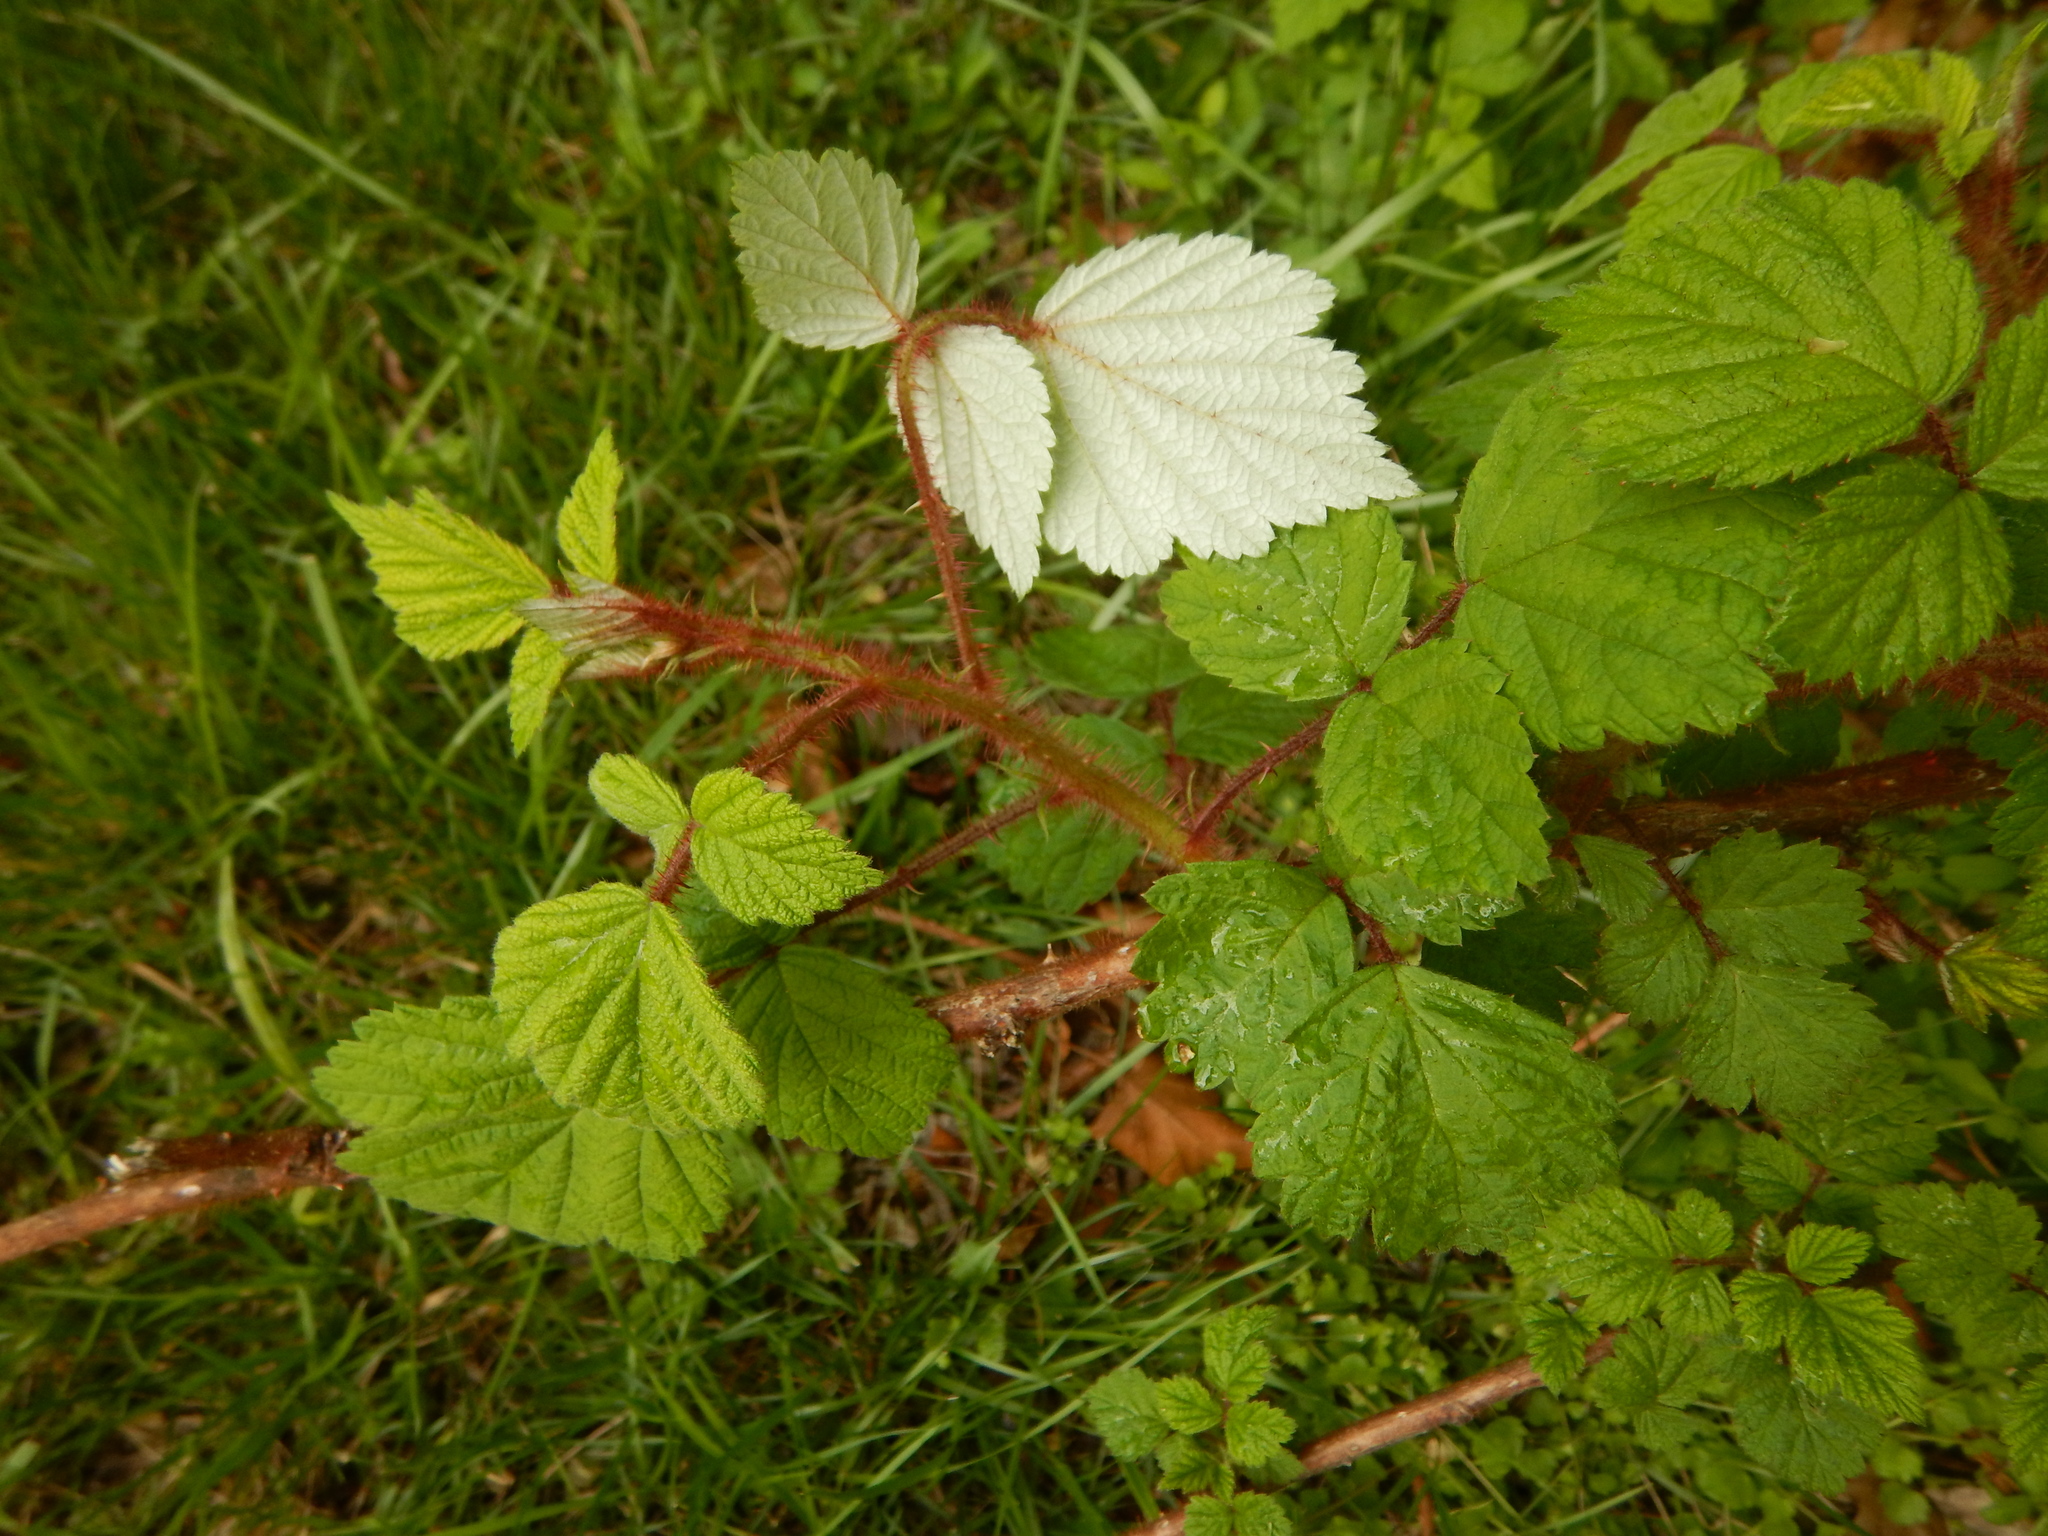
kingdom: Plantae
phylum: Tracheophyta
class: Magnoliopsida
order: Rosales
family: Rosaceae
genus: Rubus
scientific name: Rubus phoenicolasius
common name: Japanese wineberry
